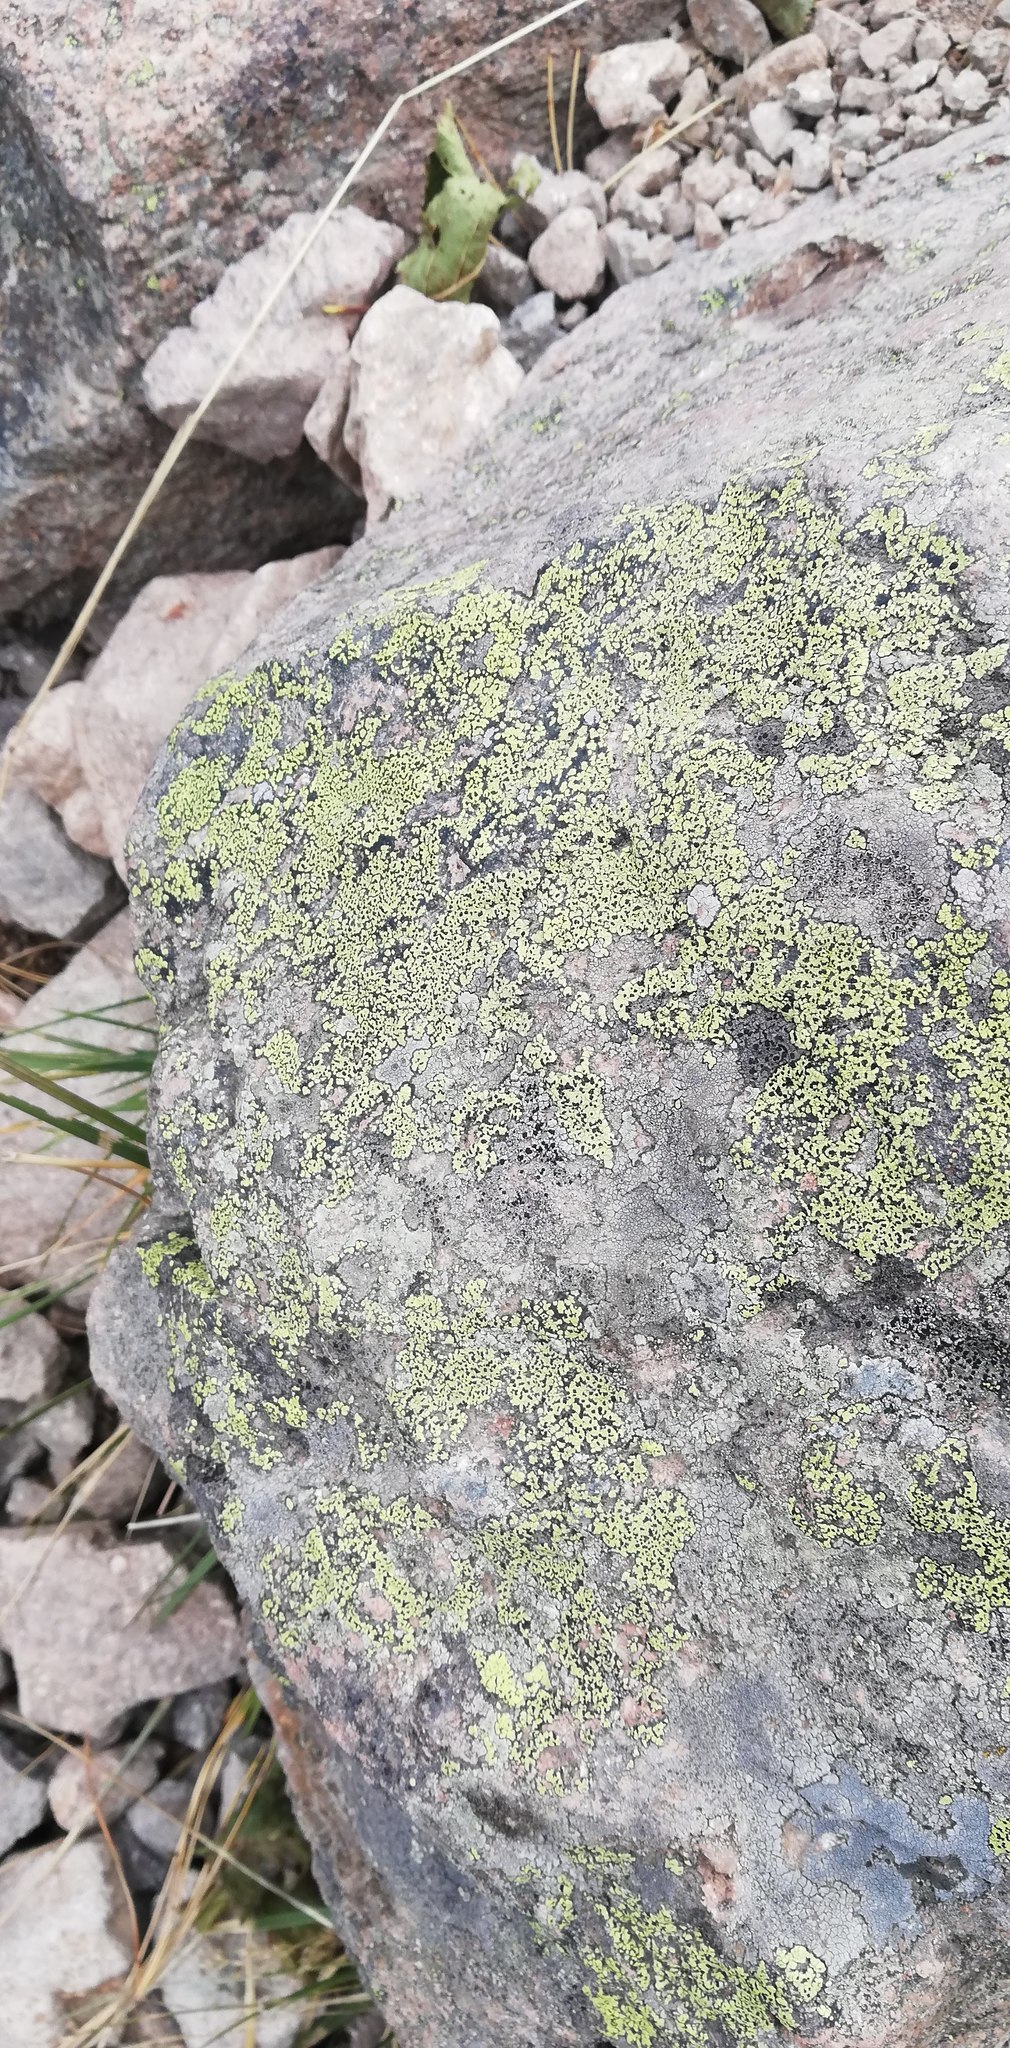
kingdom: Fungi
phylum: Ascomycota
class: Lecanoromycetes
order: Rhizocarpales
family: Rhizocarpaceae
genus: Rhizocarpon
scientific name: Rhizocarpon lecanorinum
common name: Crescent map lichen
